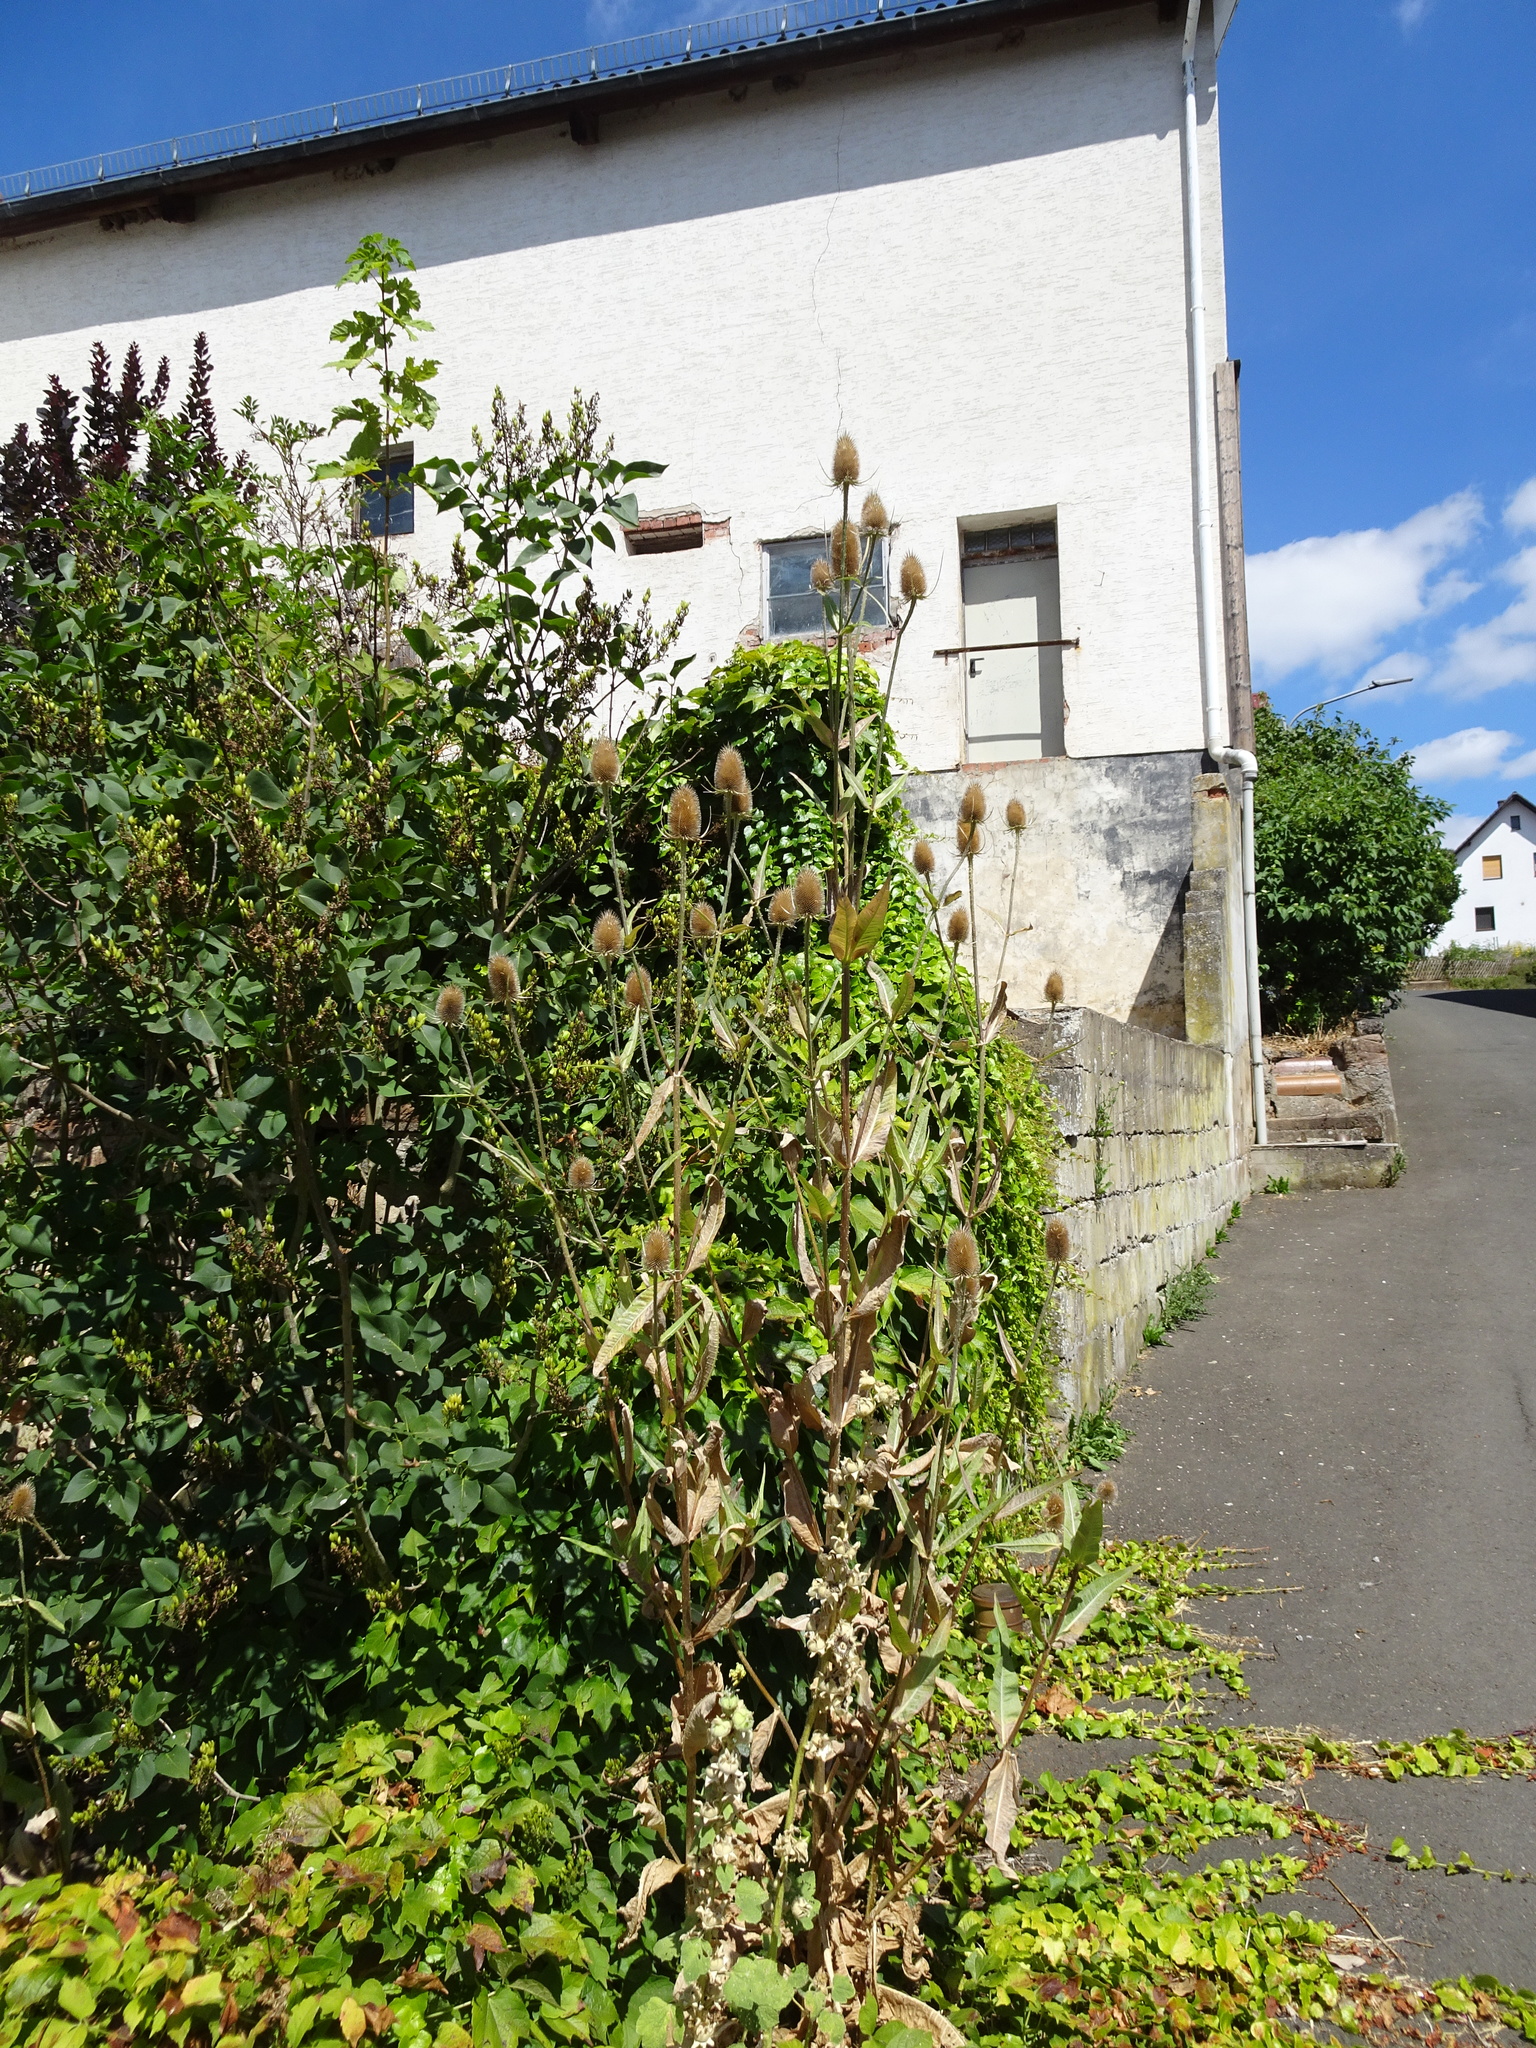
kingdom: Plantae
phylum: Tracheophyta
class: Magnoliopsida
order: Dipsacales
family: Caprifoliaceae
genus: Dipsacus
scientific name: Dipsacus fullonum
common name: Teasel
